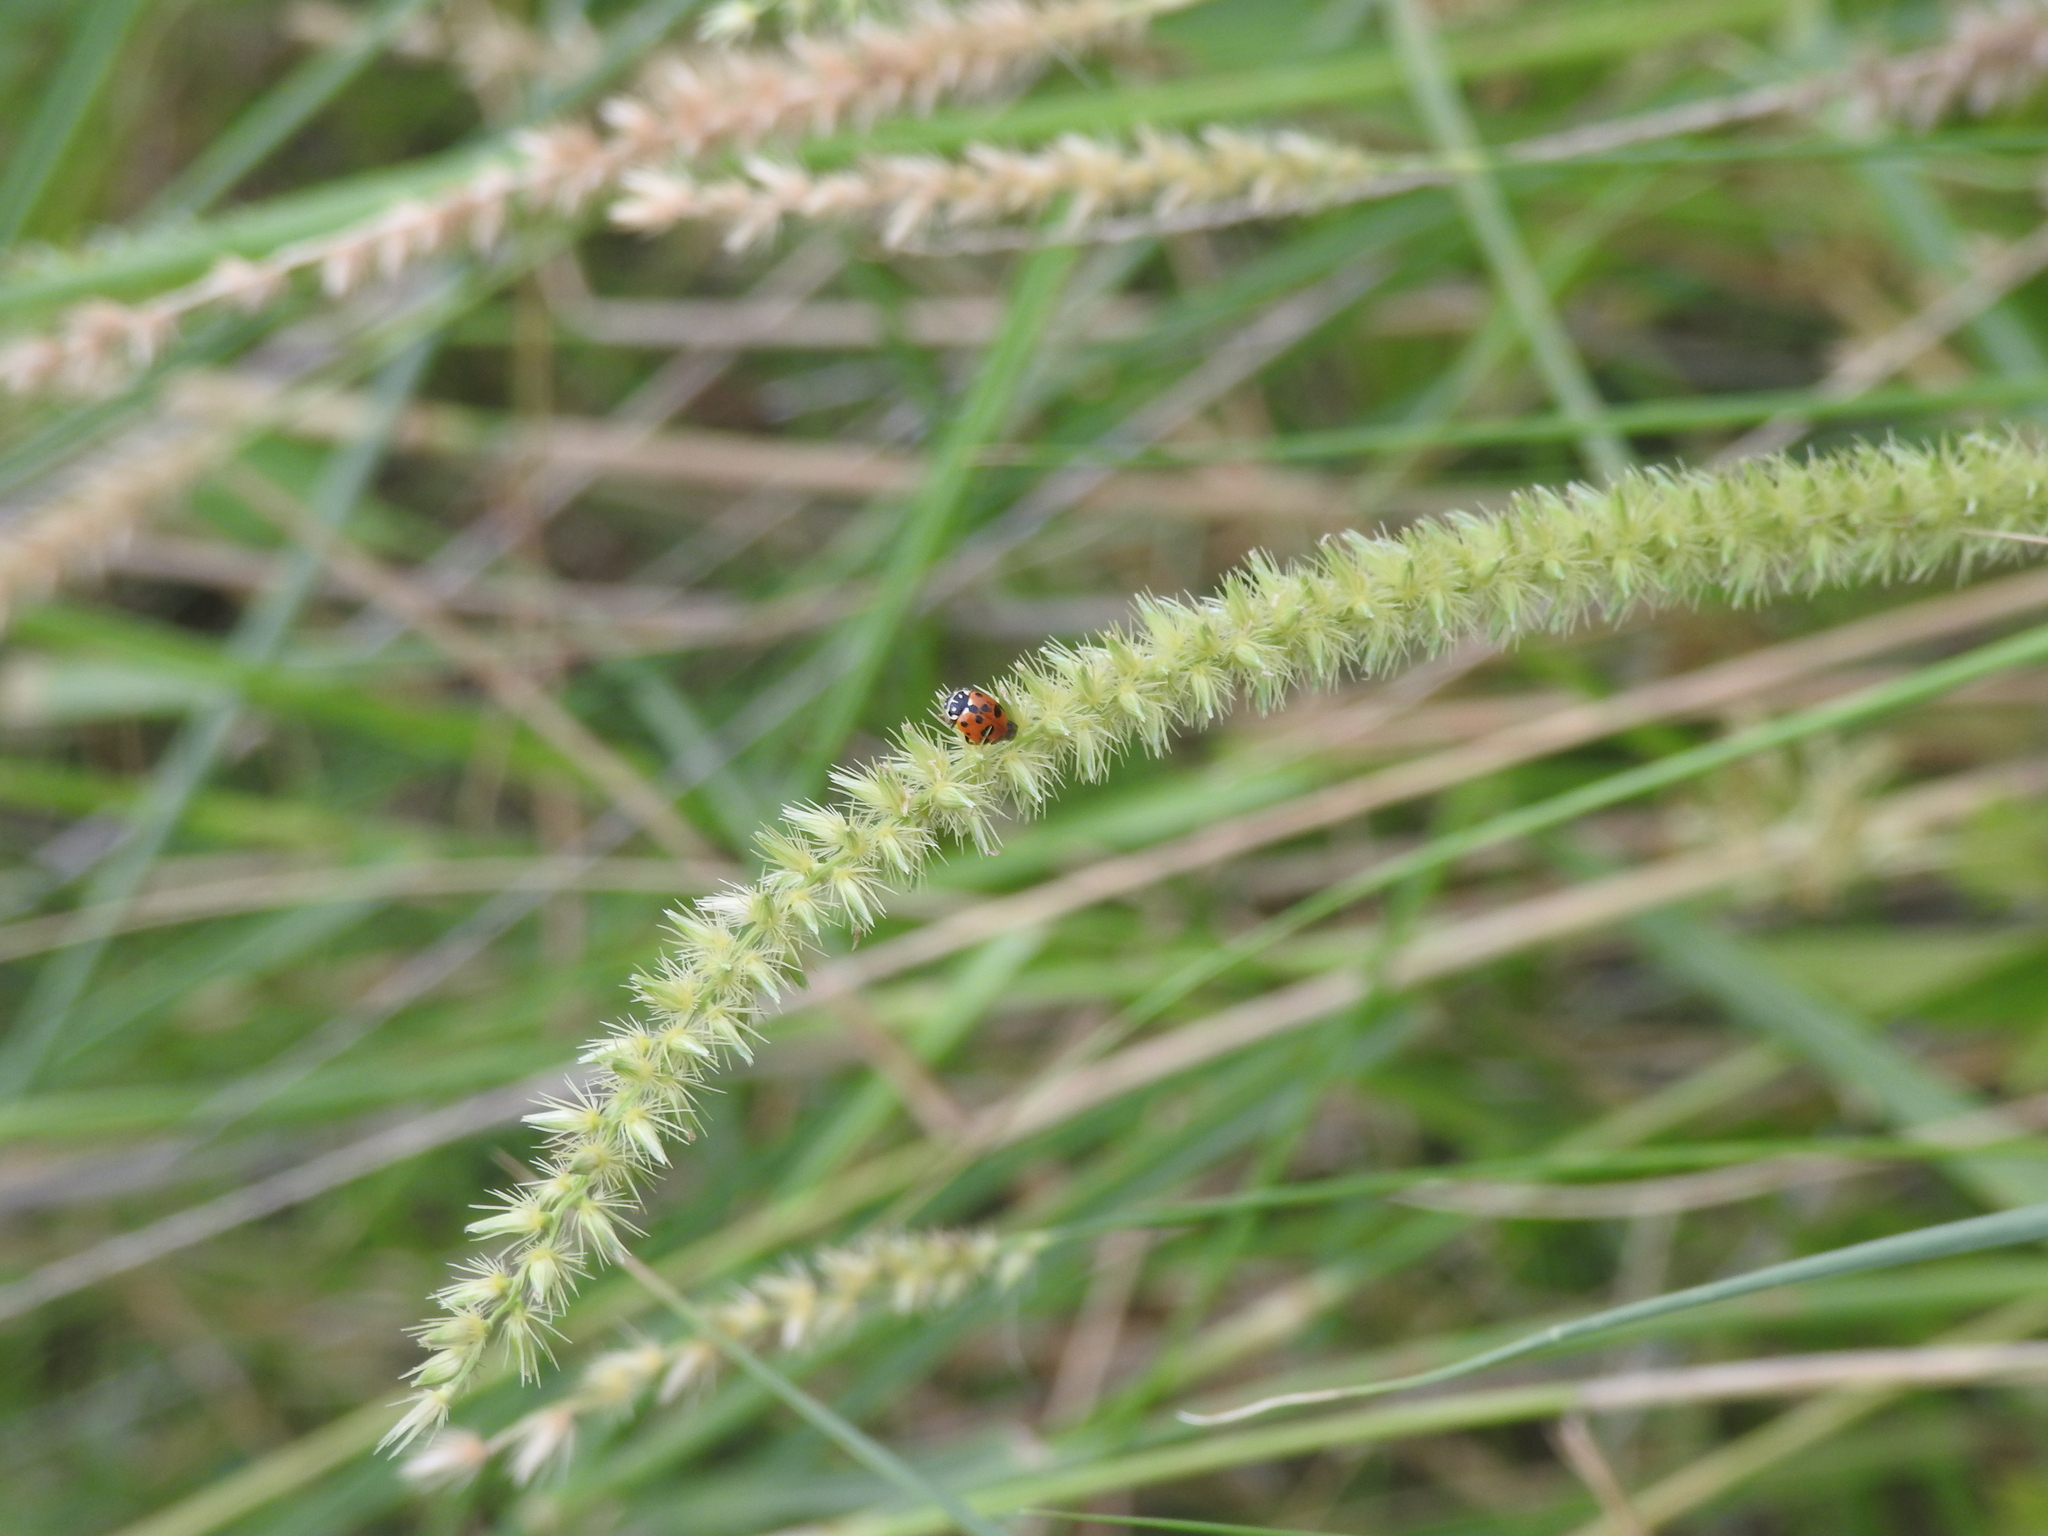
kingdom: Animalia
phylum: Arthropoda
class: Insecta
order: Coleoptera
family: Coccinellidae
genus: Hippodamia
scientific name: Hippodamia variegata
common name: Ladybird beetle
